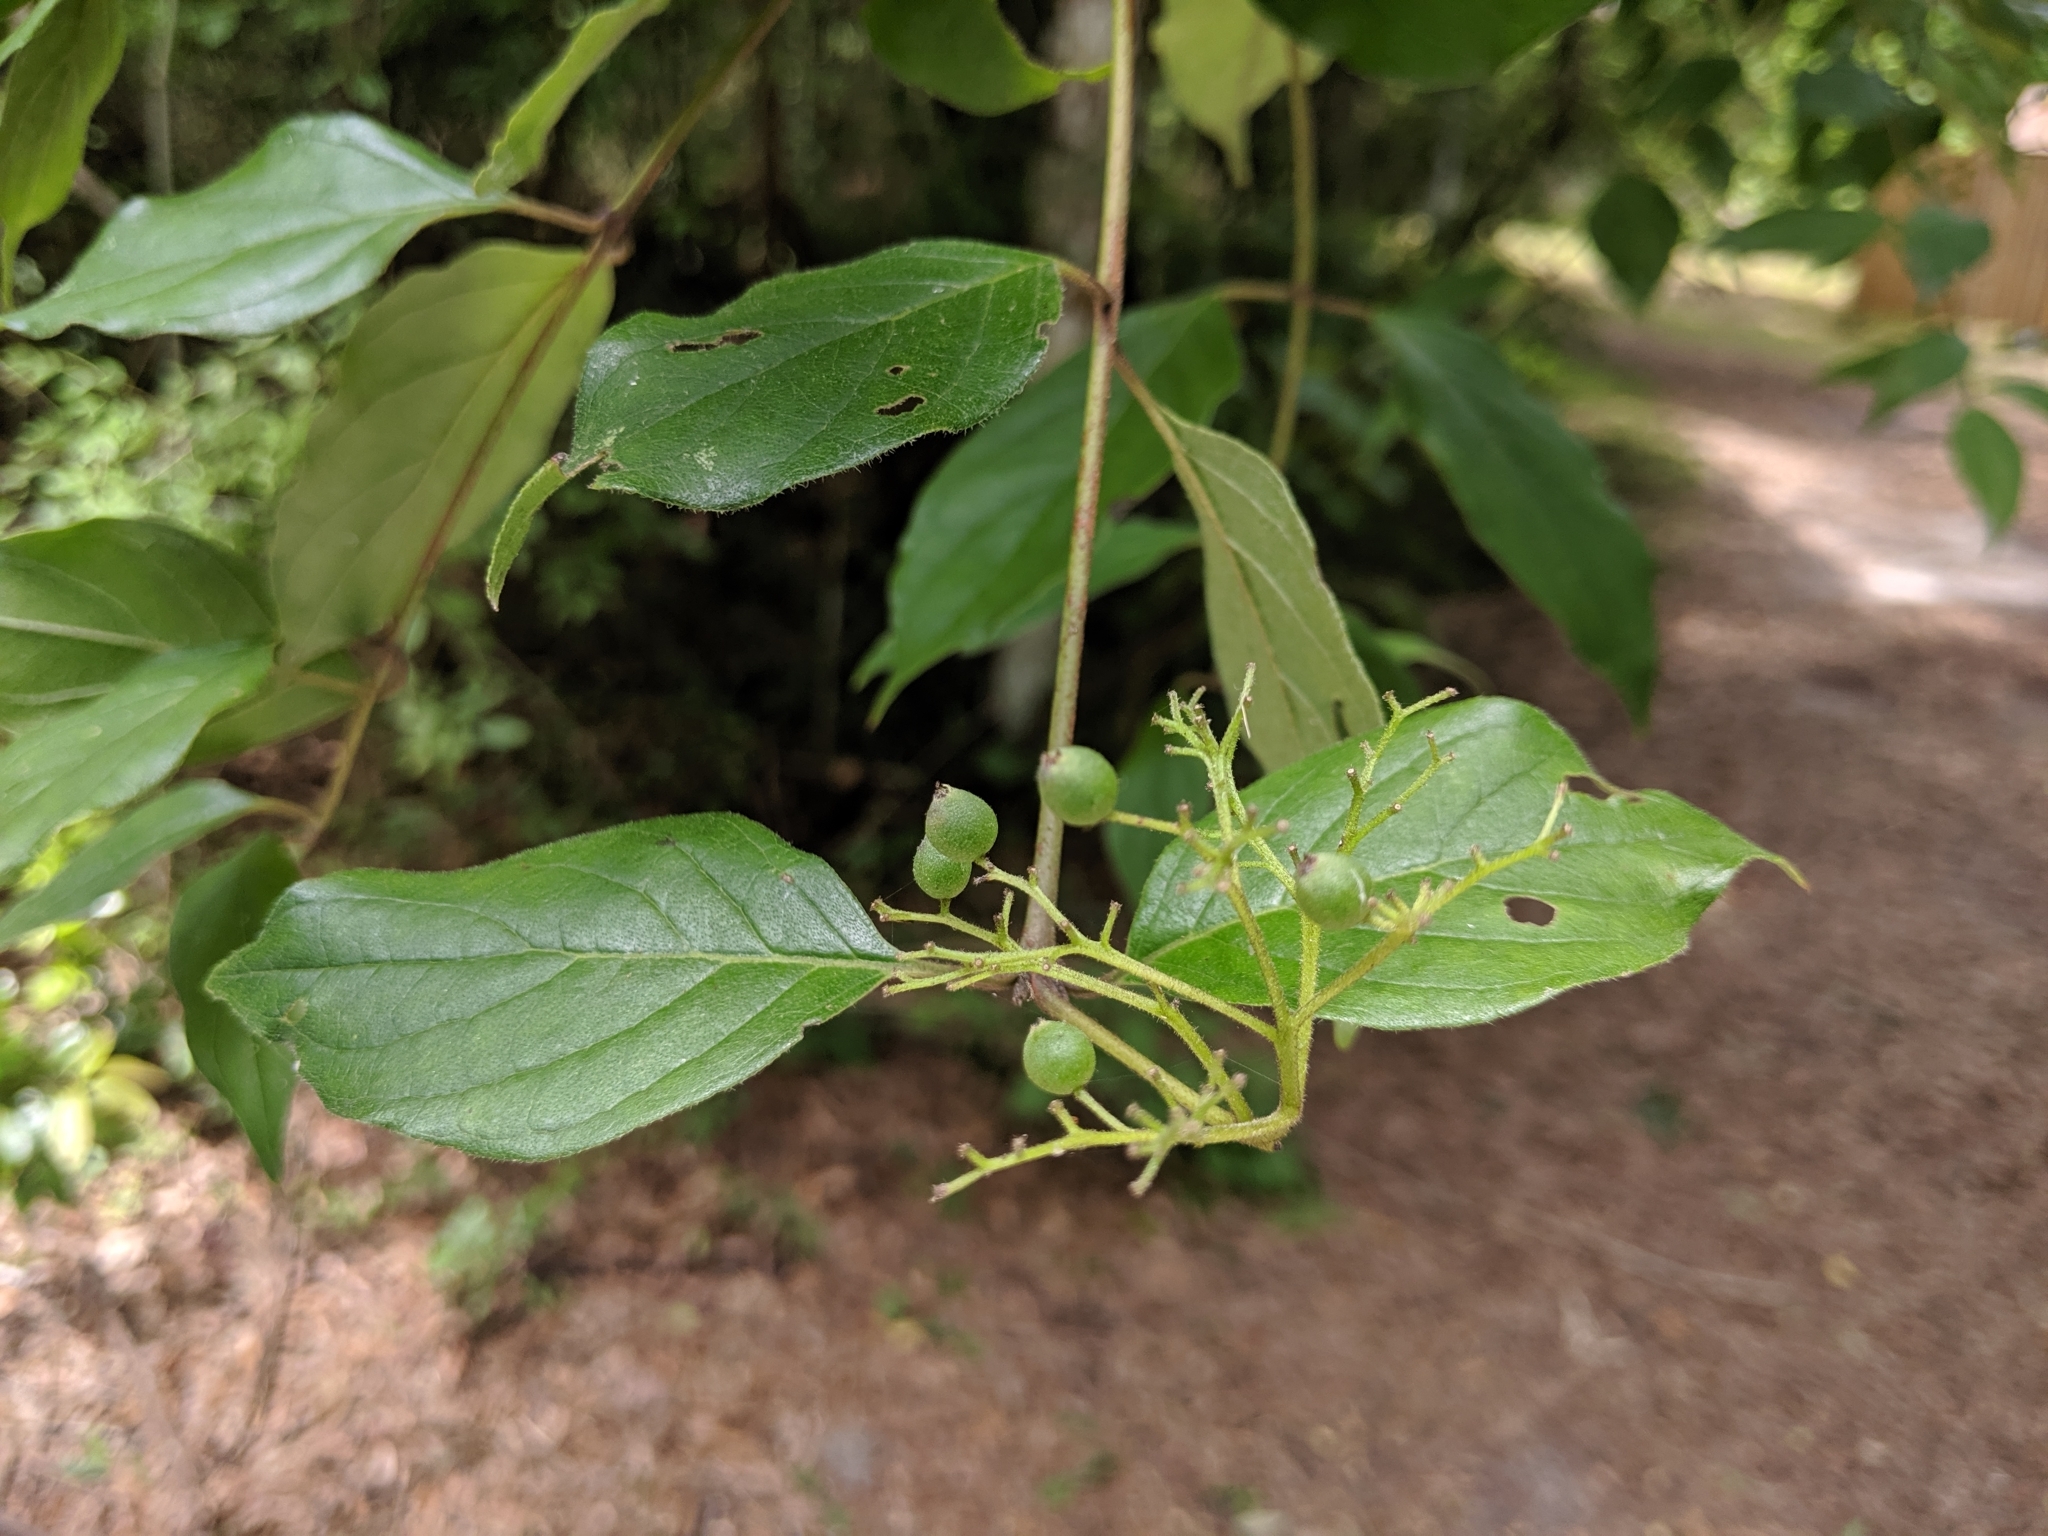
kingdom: Plantae
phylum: Tracheophyta
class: Magnoliopsida
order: Cornales
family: Cornaceae
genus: Cornus
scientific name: Cornus asperifolia
